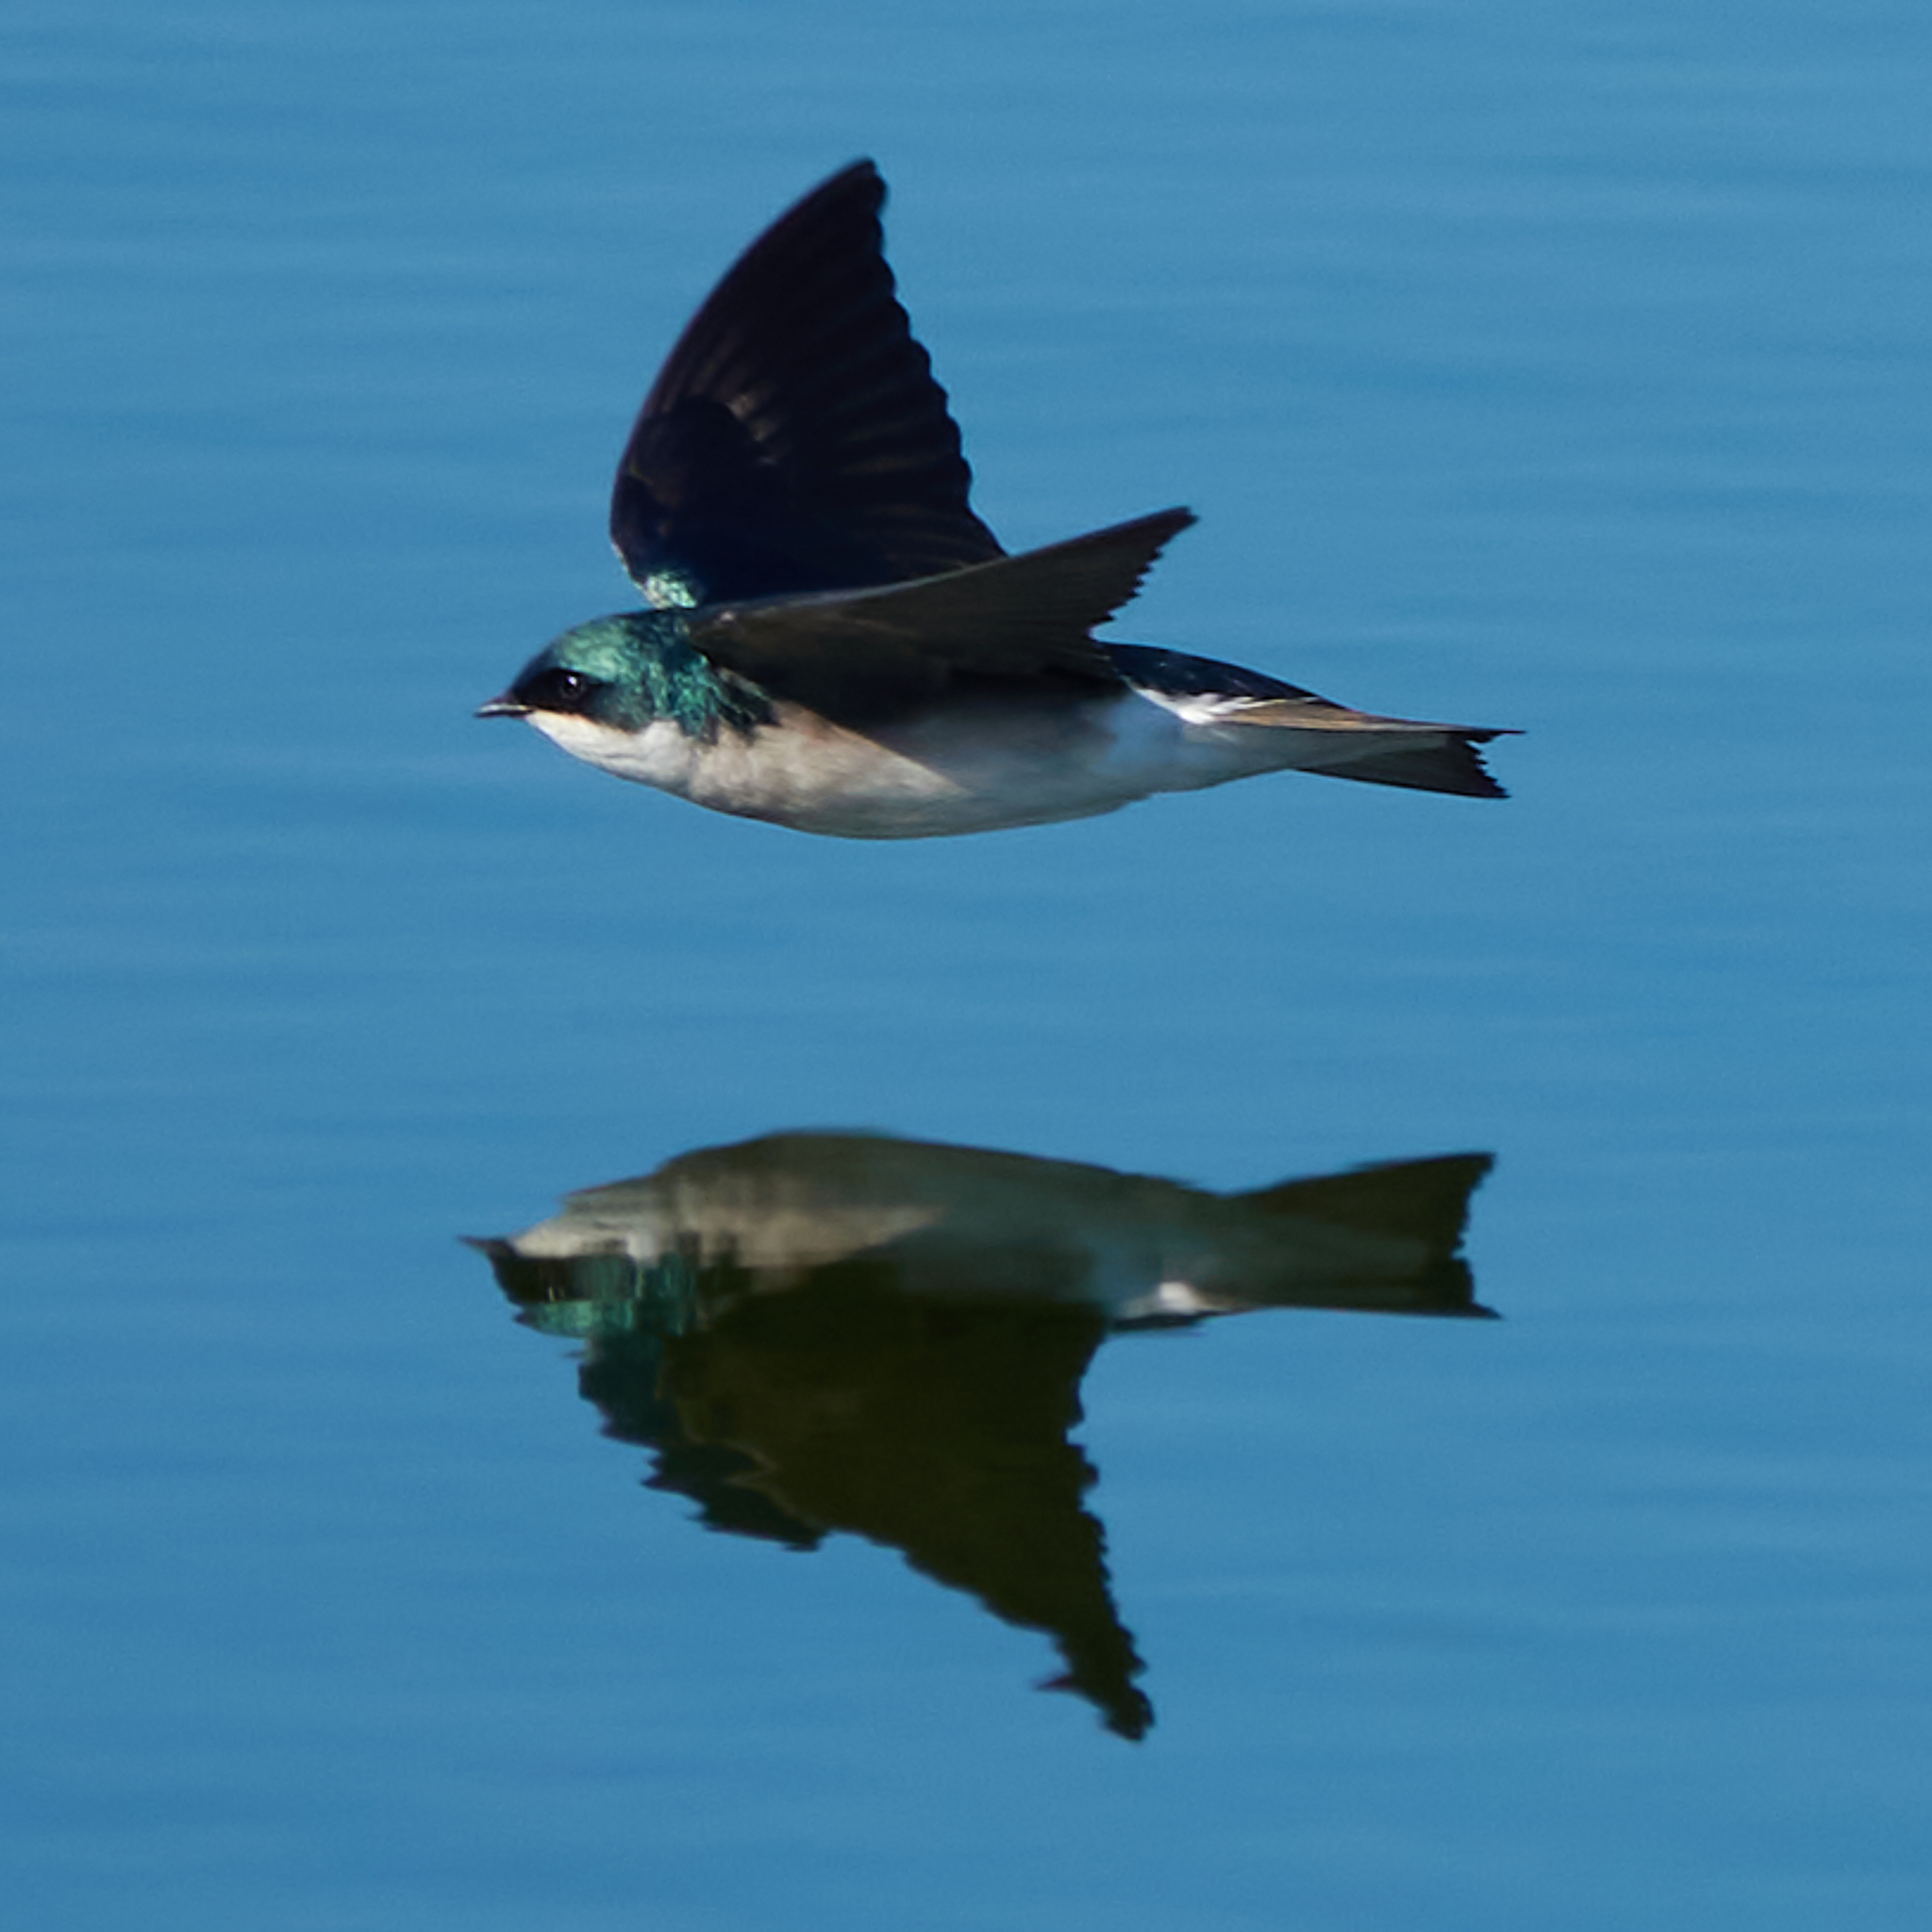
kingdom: Animalia
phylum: Chordata
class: Aves
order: Passeriformes
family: Hirundinidae
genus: Tachycineta
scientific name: Tachycineta bicolor
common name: Tree swallow
